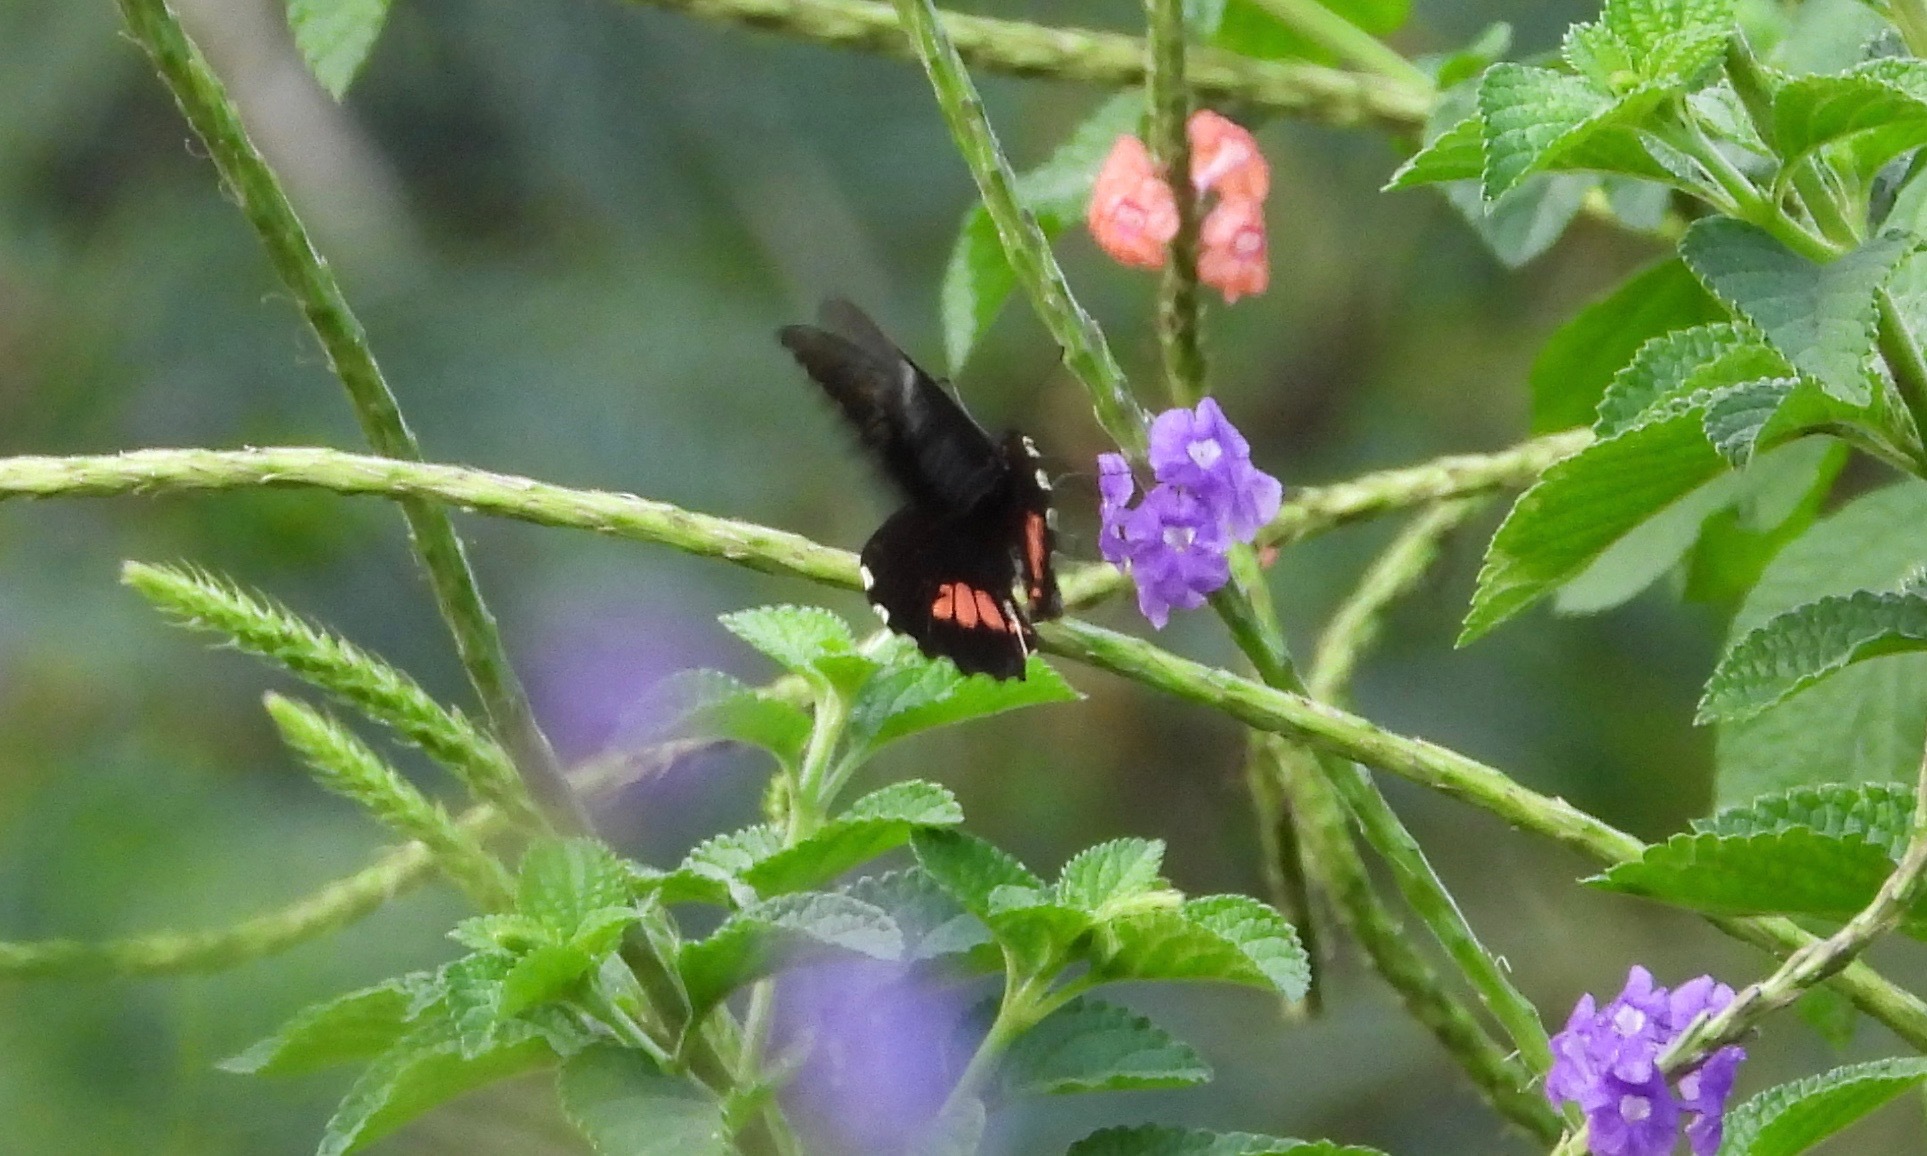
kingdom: Animalia
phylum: Arthropoda
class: Insecta
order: Lepidoptera
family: Papilionidae
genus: Papilio
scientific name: Papilio anchisiades
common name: Idaes swallowtail
